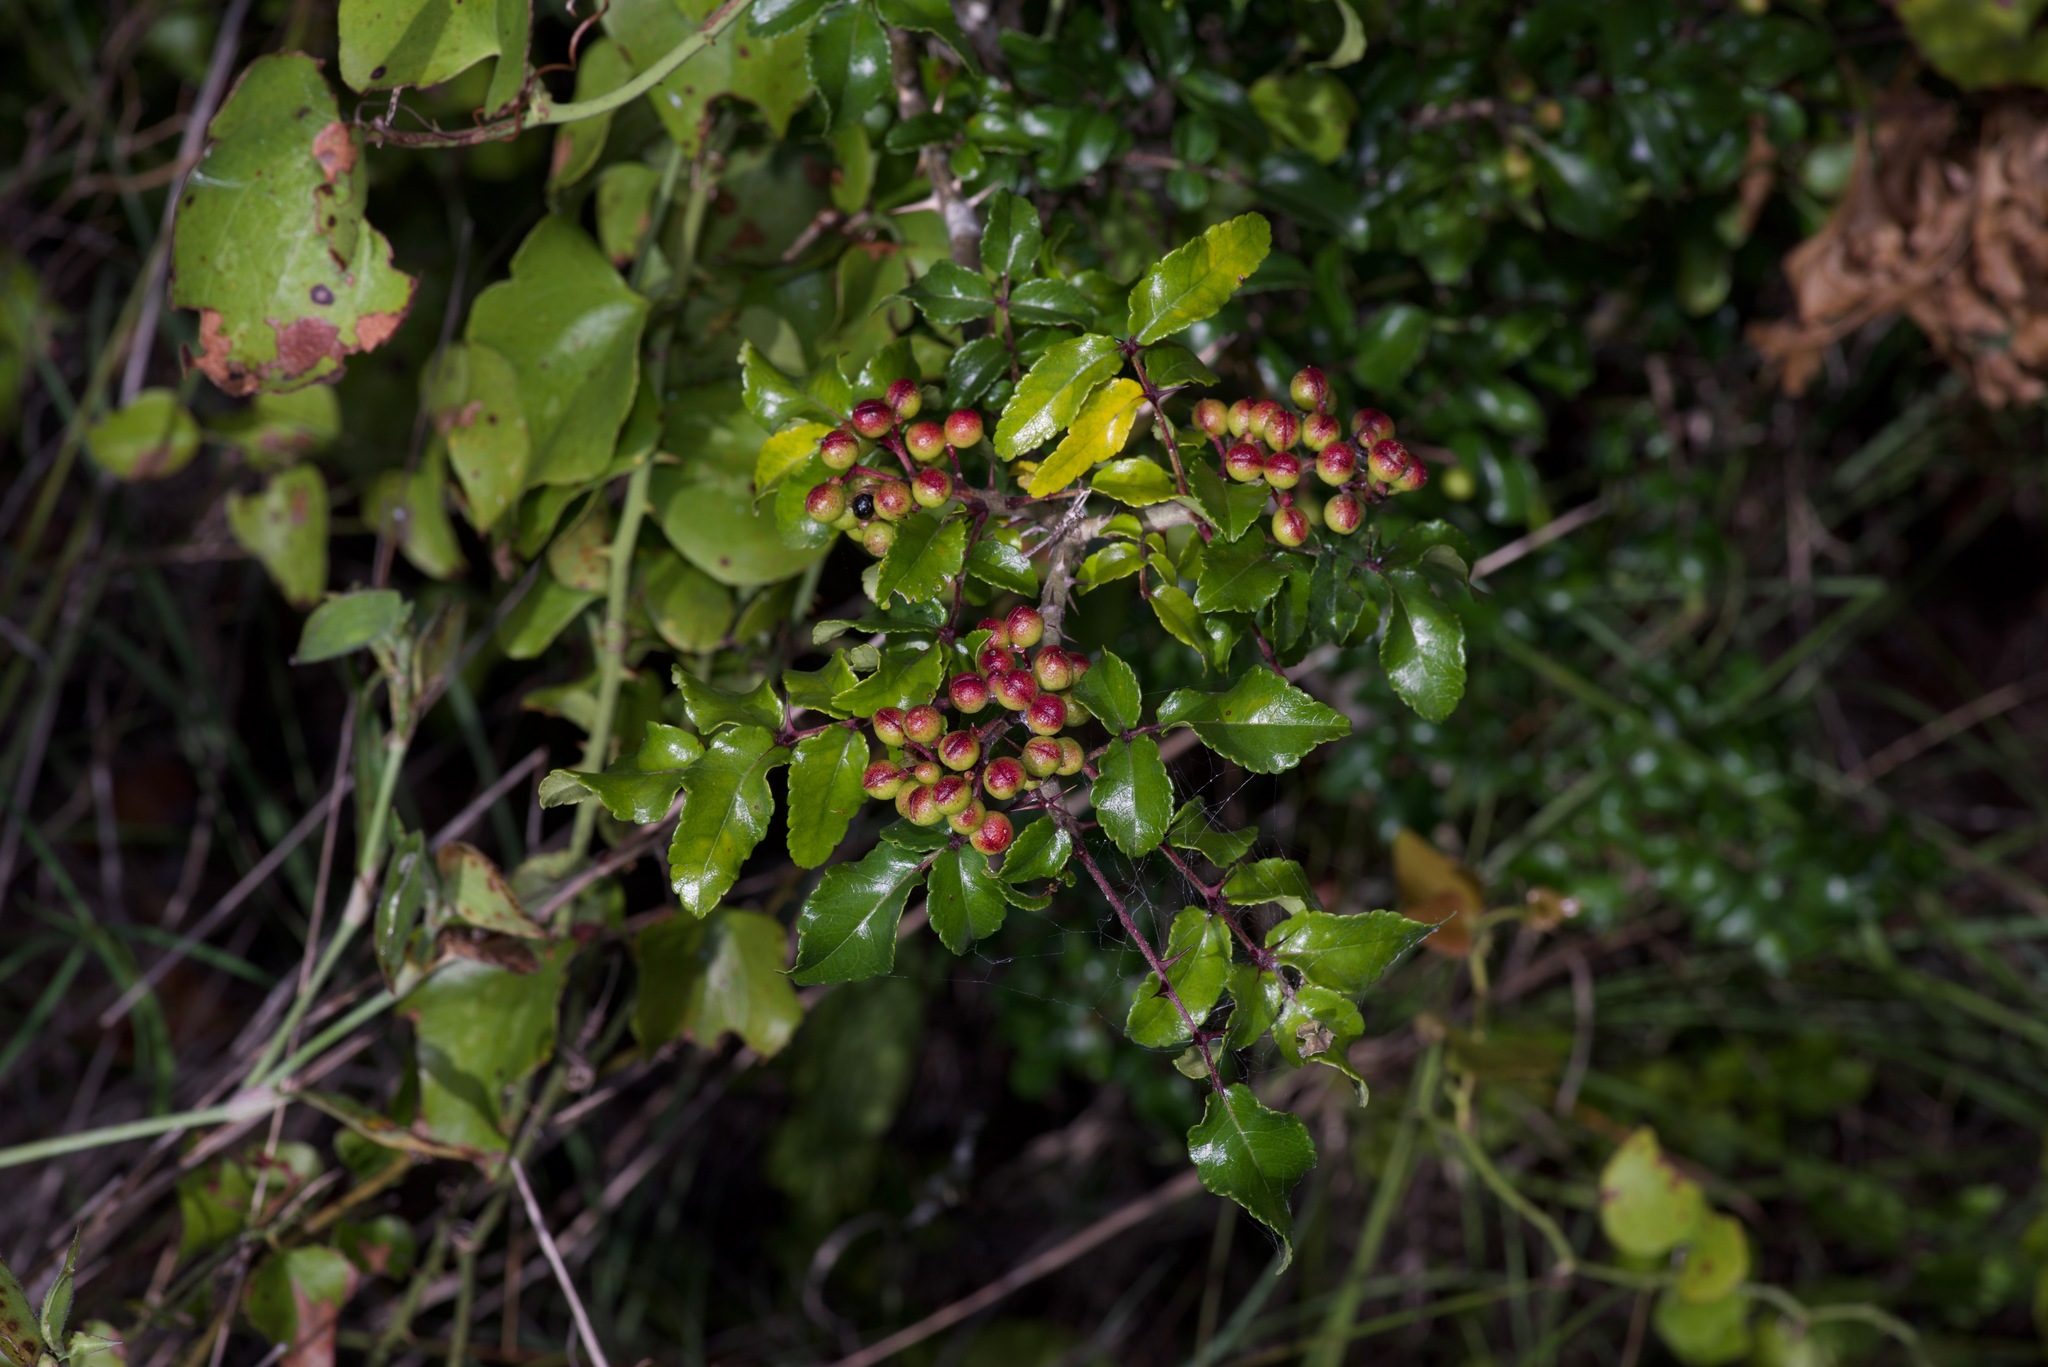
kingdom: Plantae
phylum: Tracheophyta
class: Magnoliopsida
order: Sapindales
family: Rutaceae
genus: Zanthoxylum
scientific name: Zanthoxylum clava-herculis
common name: Hercules'-club
